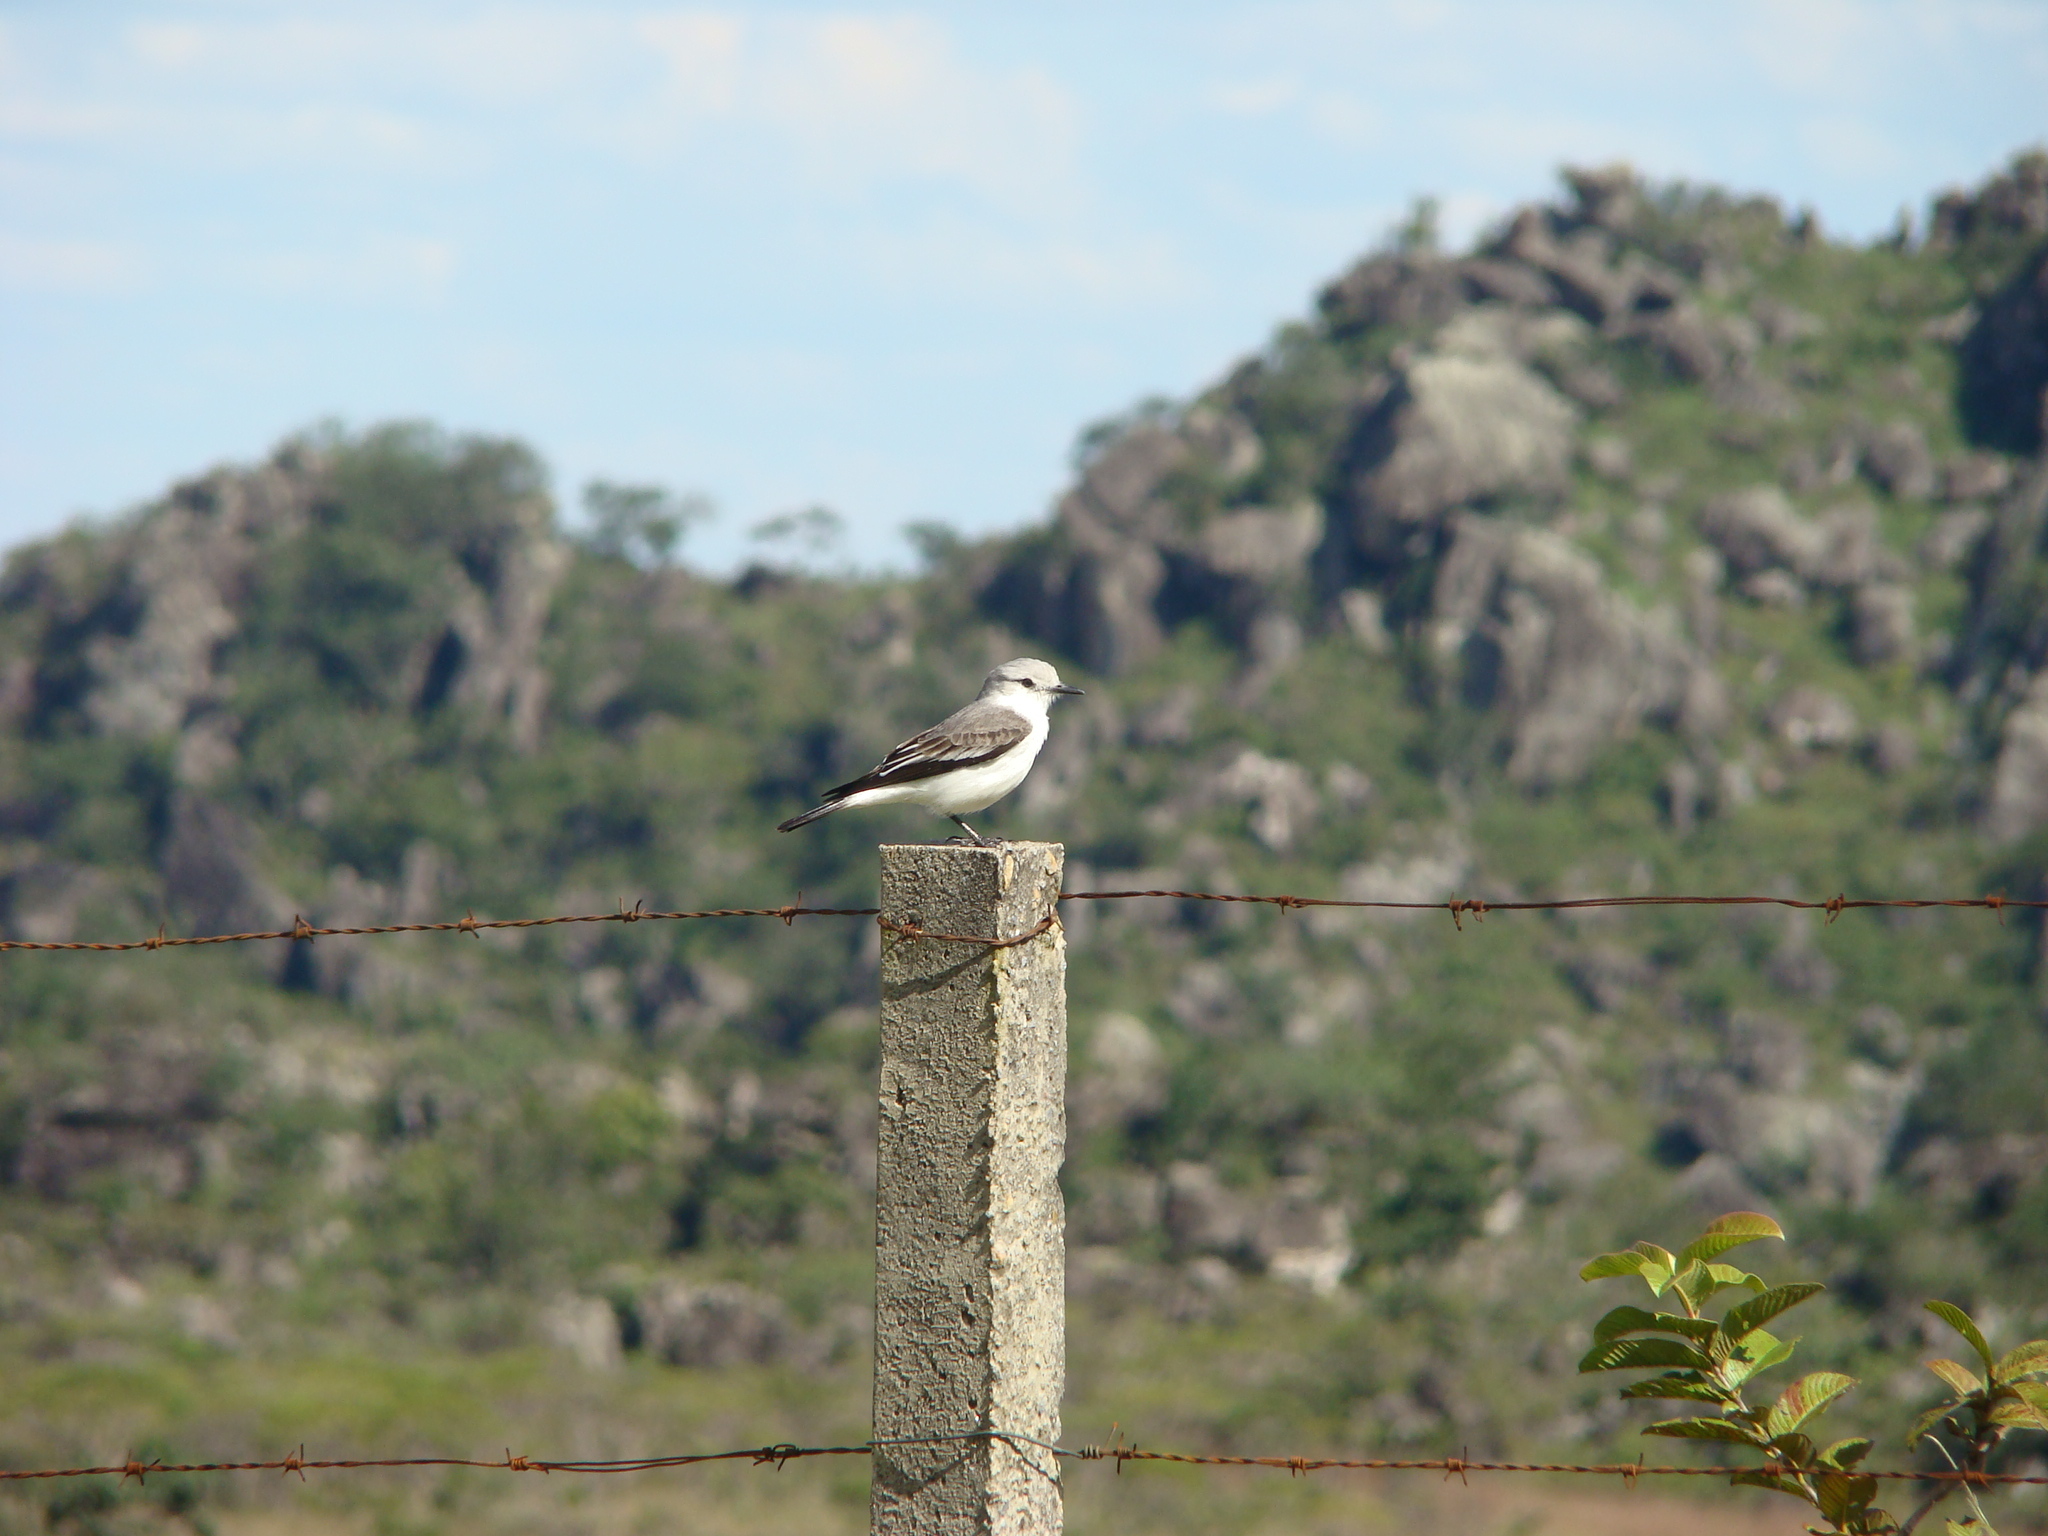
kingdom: Animalia
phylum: Chordata
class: Aves
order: Passeriformes
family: Tyrannidae
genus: Xolmis
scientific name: Xolmis velatus
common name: White-rumped monjita
